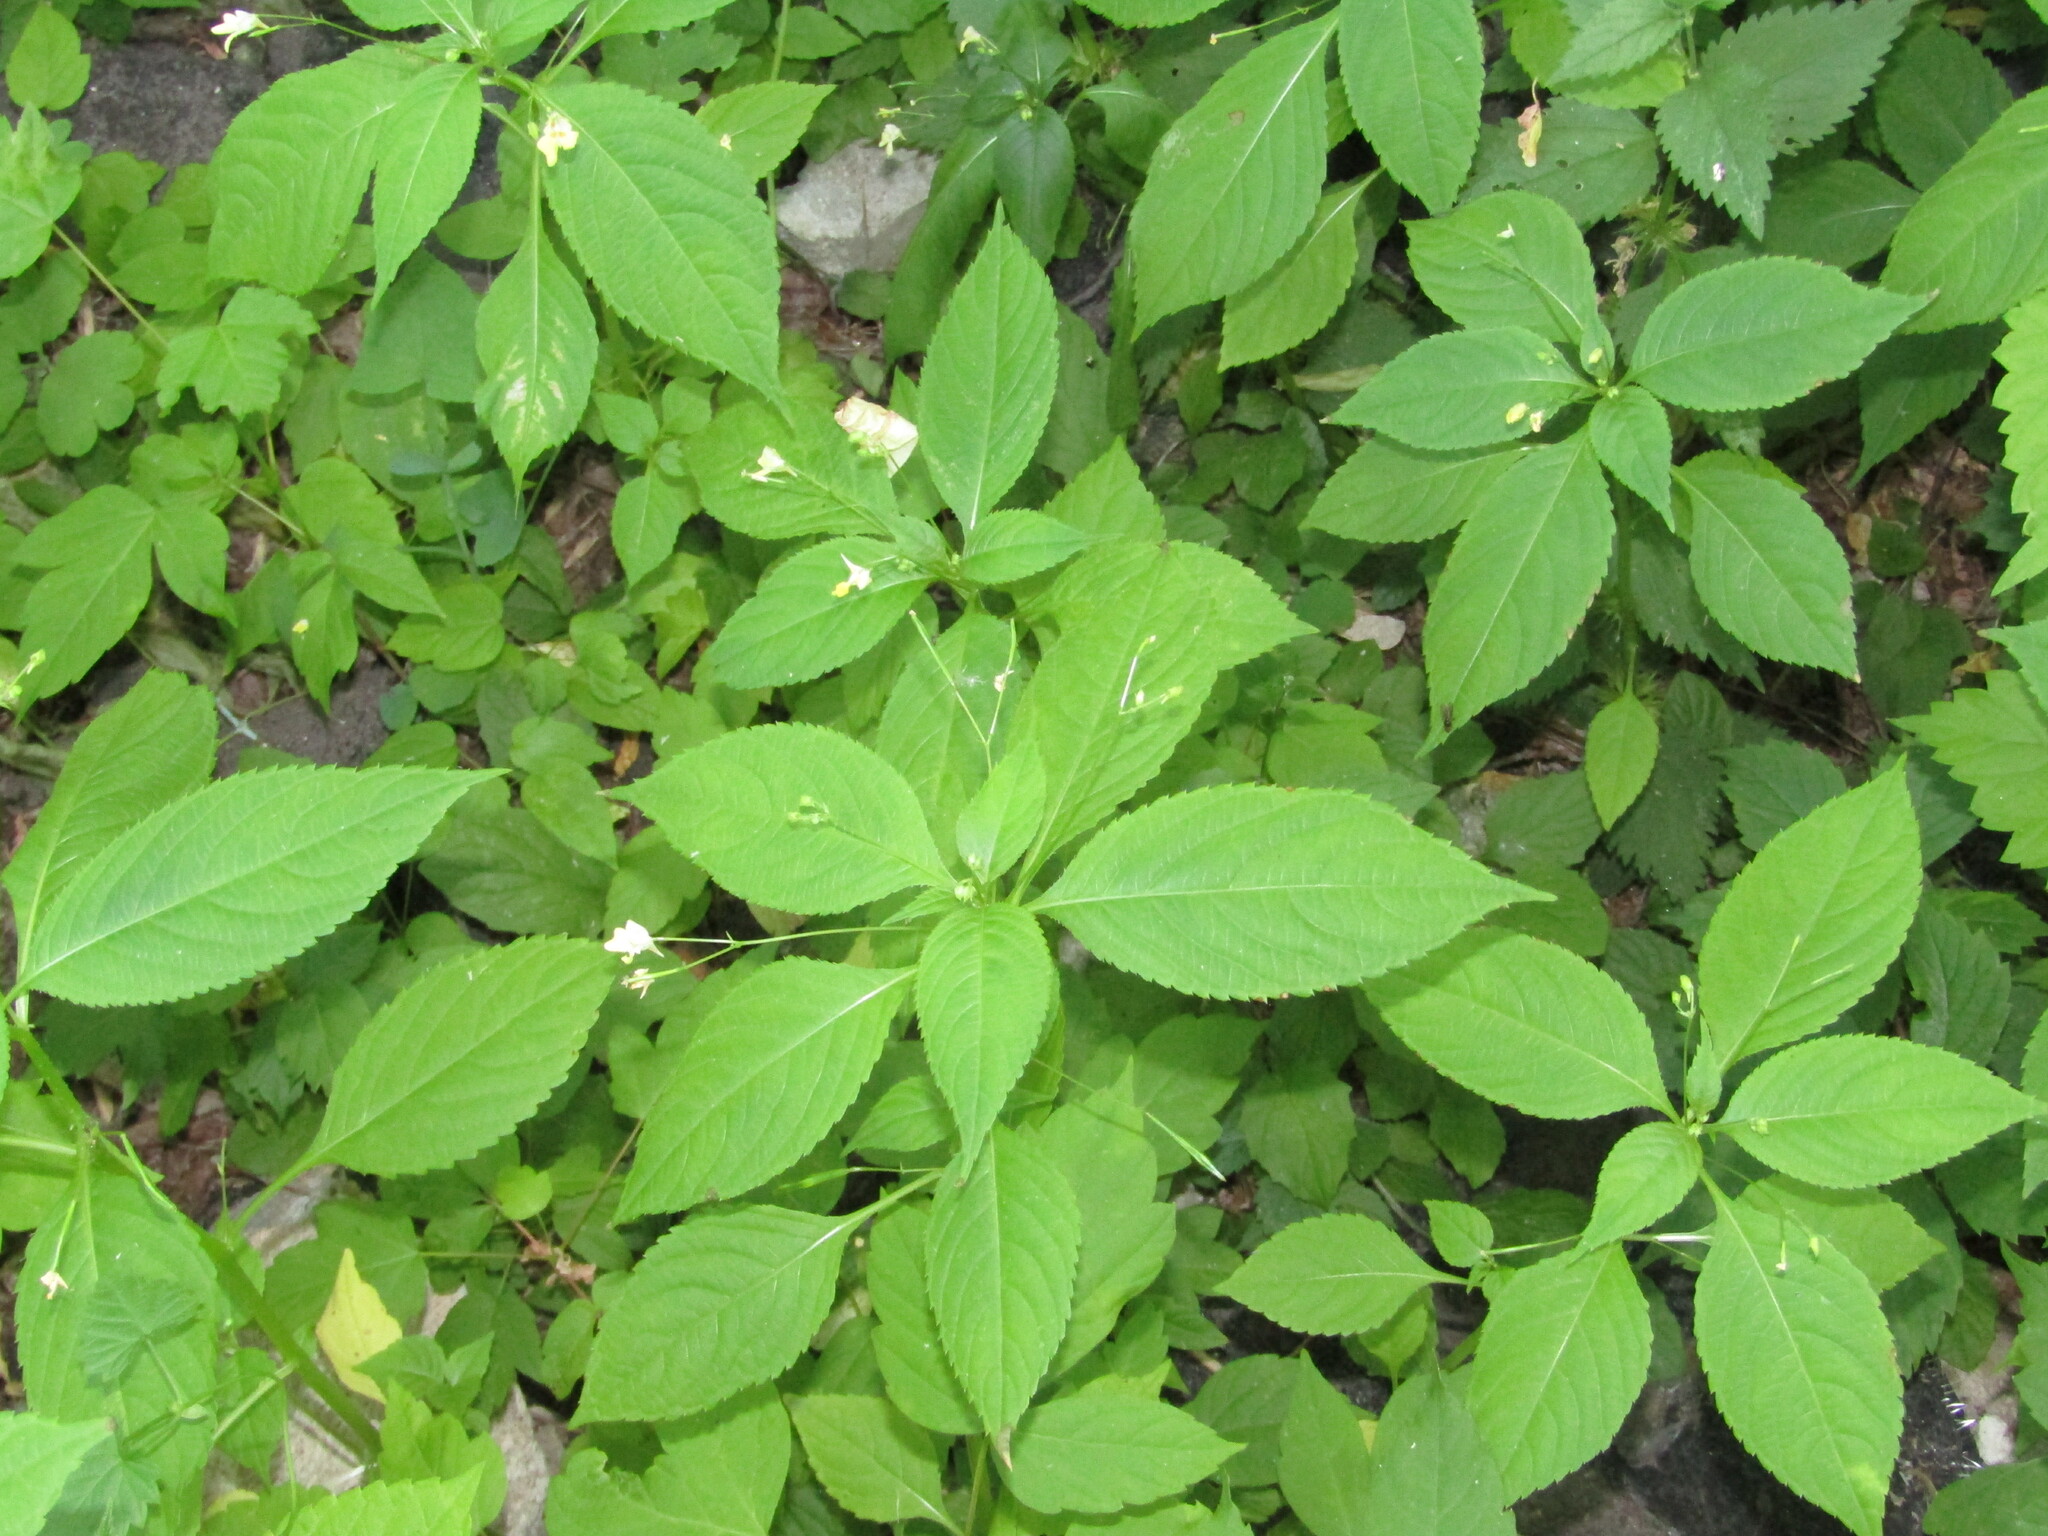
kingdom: Plantae
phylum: Tracheophyta
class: Magnoliopsida
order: Ericales
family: Balsaminaceae
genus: Impatiens
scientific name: Impatiens parviflora
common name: Small balsam
